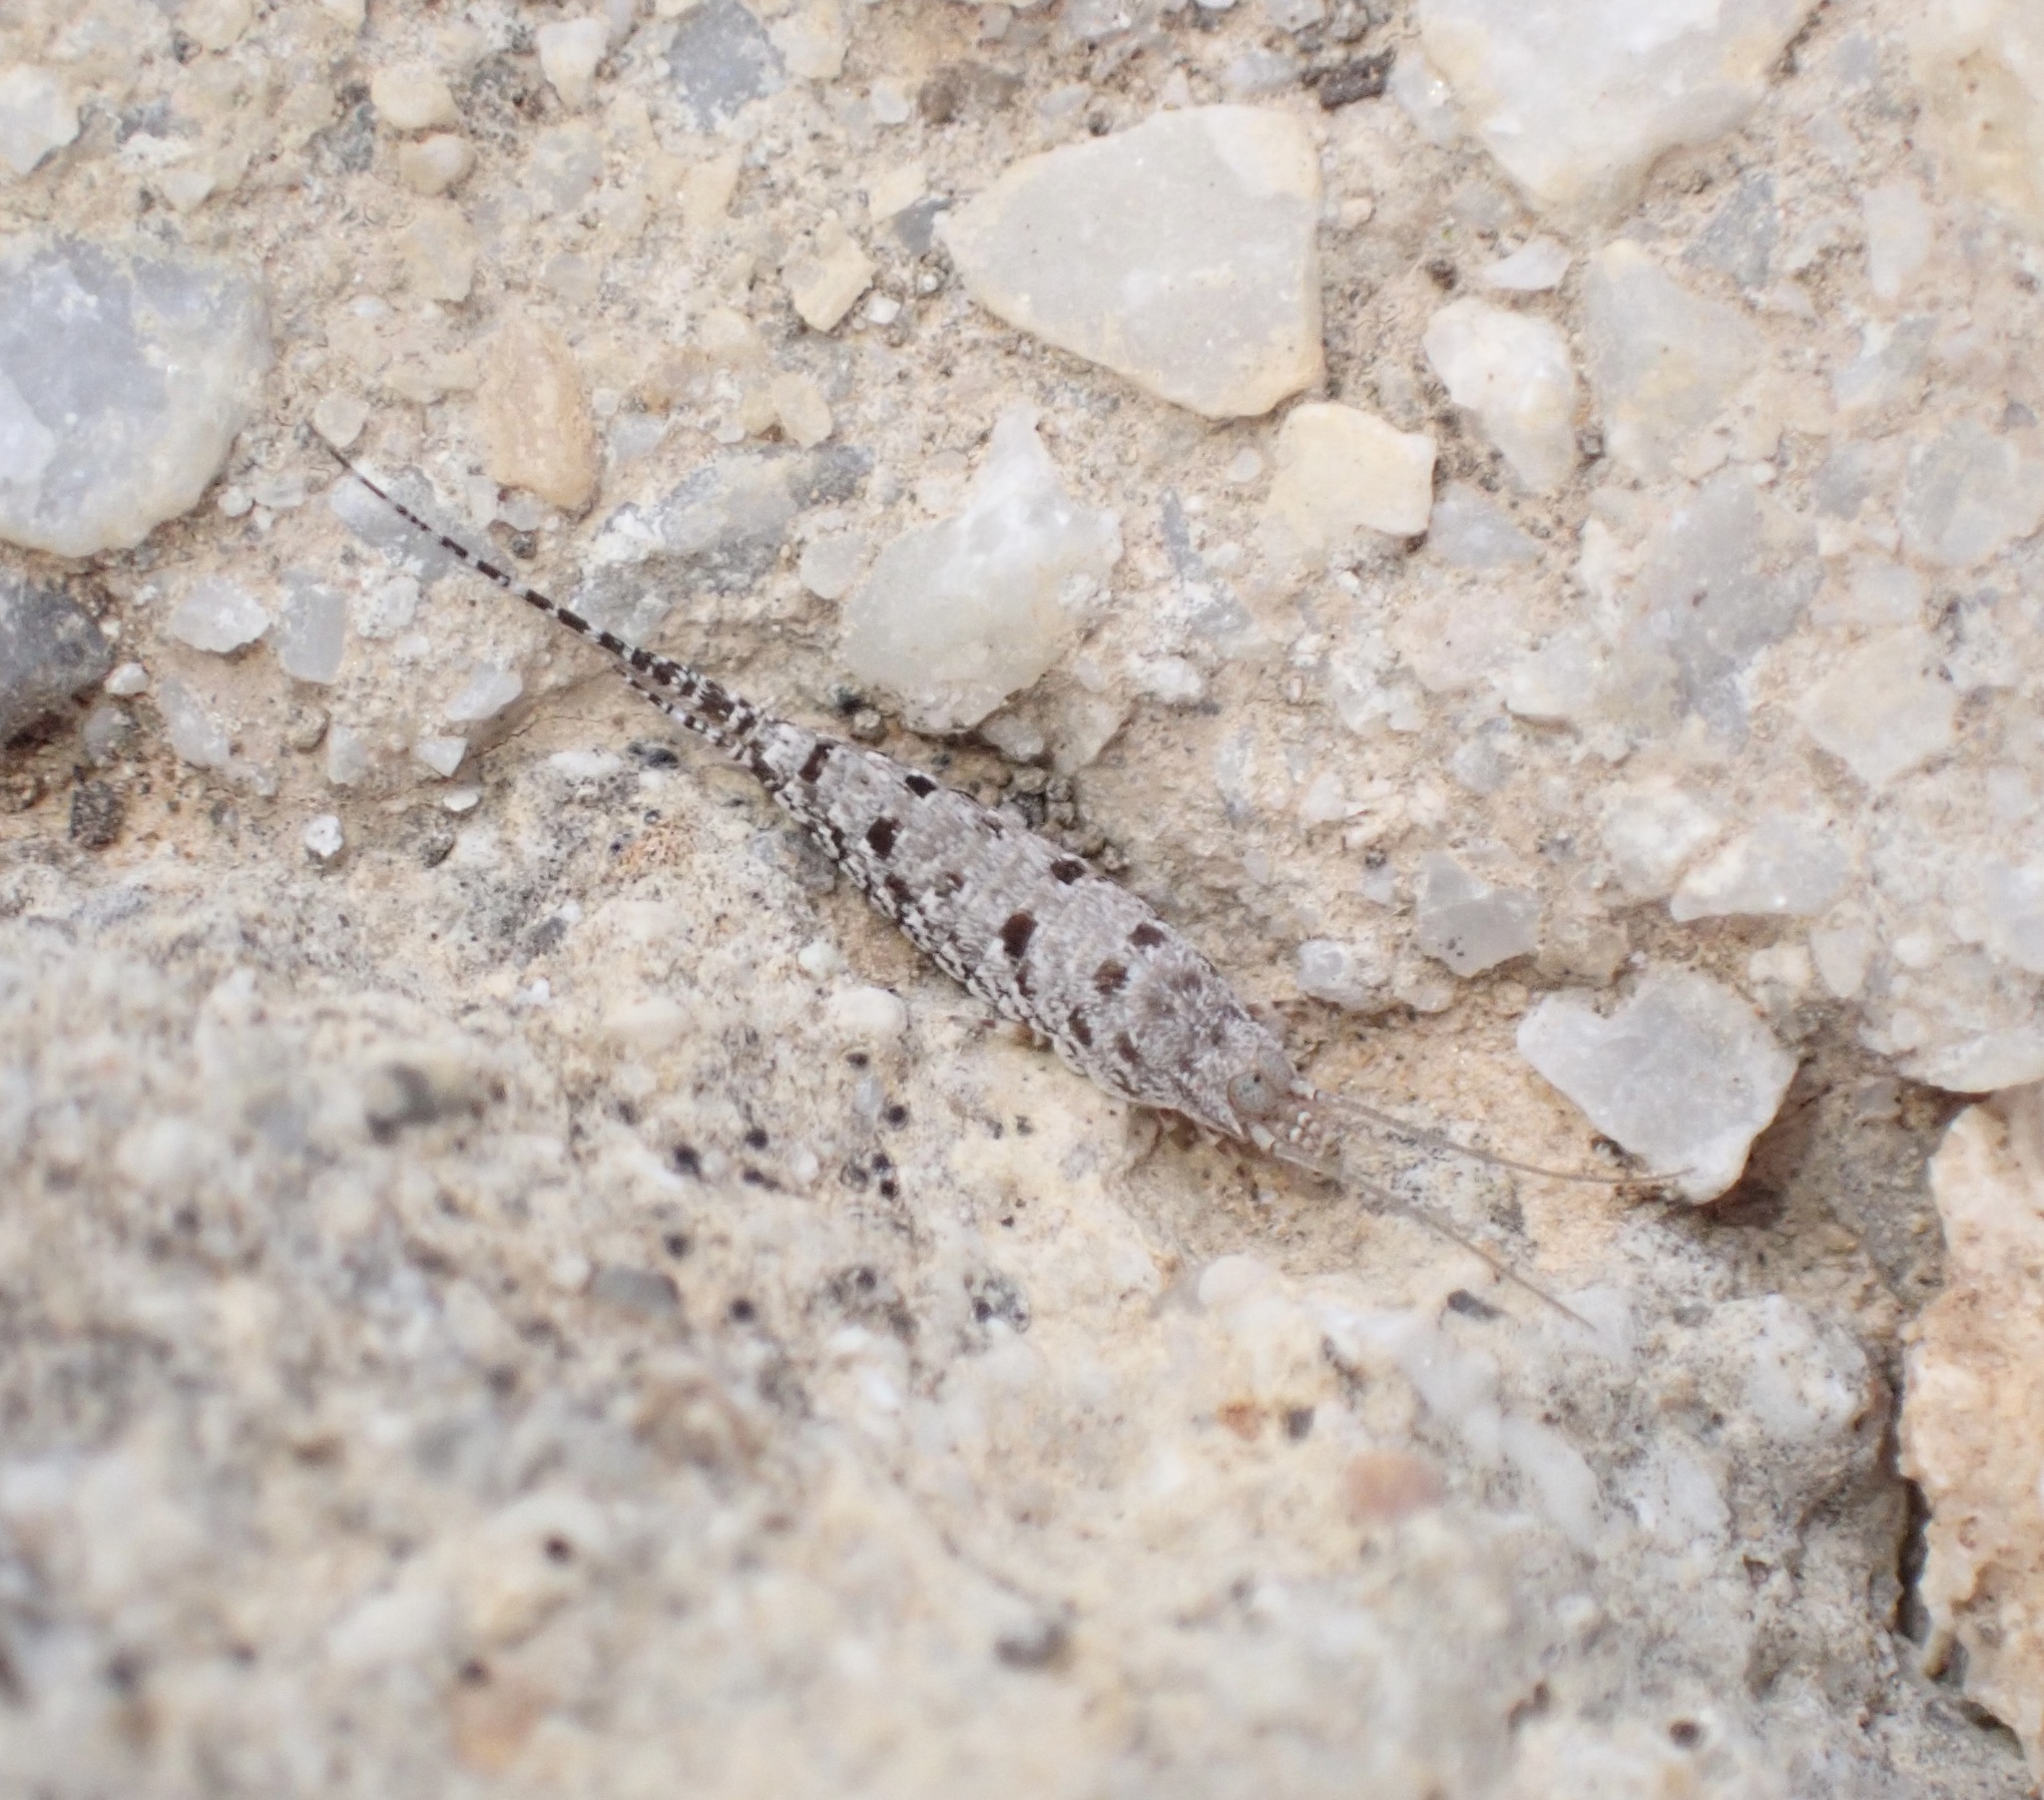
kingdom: Animalia
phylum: Arthropoda
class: Insecta
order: Archaeognatha
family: Meinertellidae
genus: Machilinus
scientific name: Machilinus rupestris
